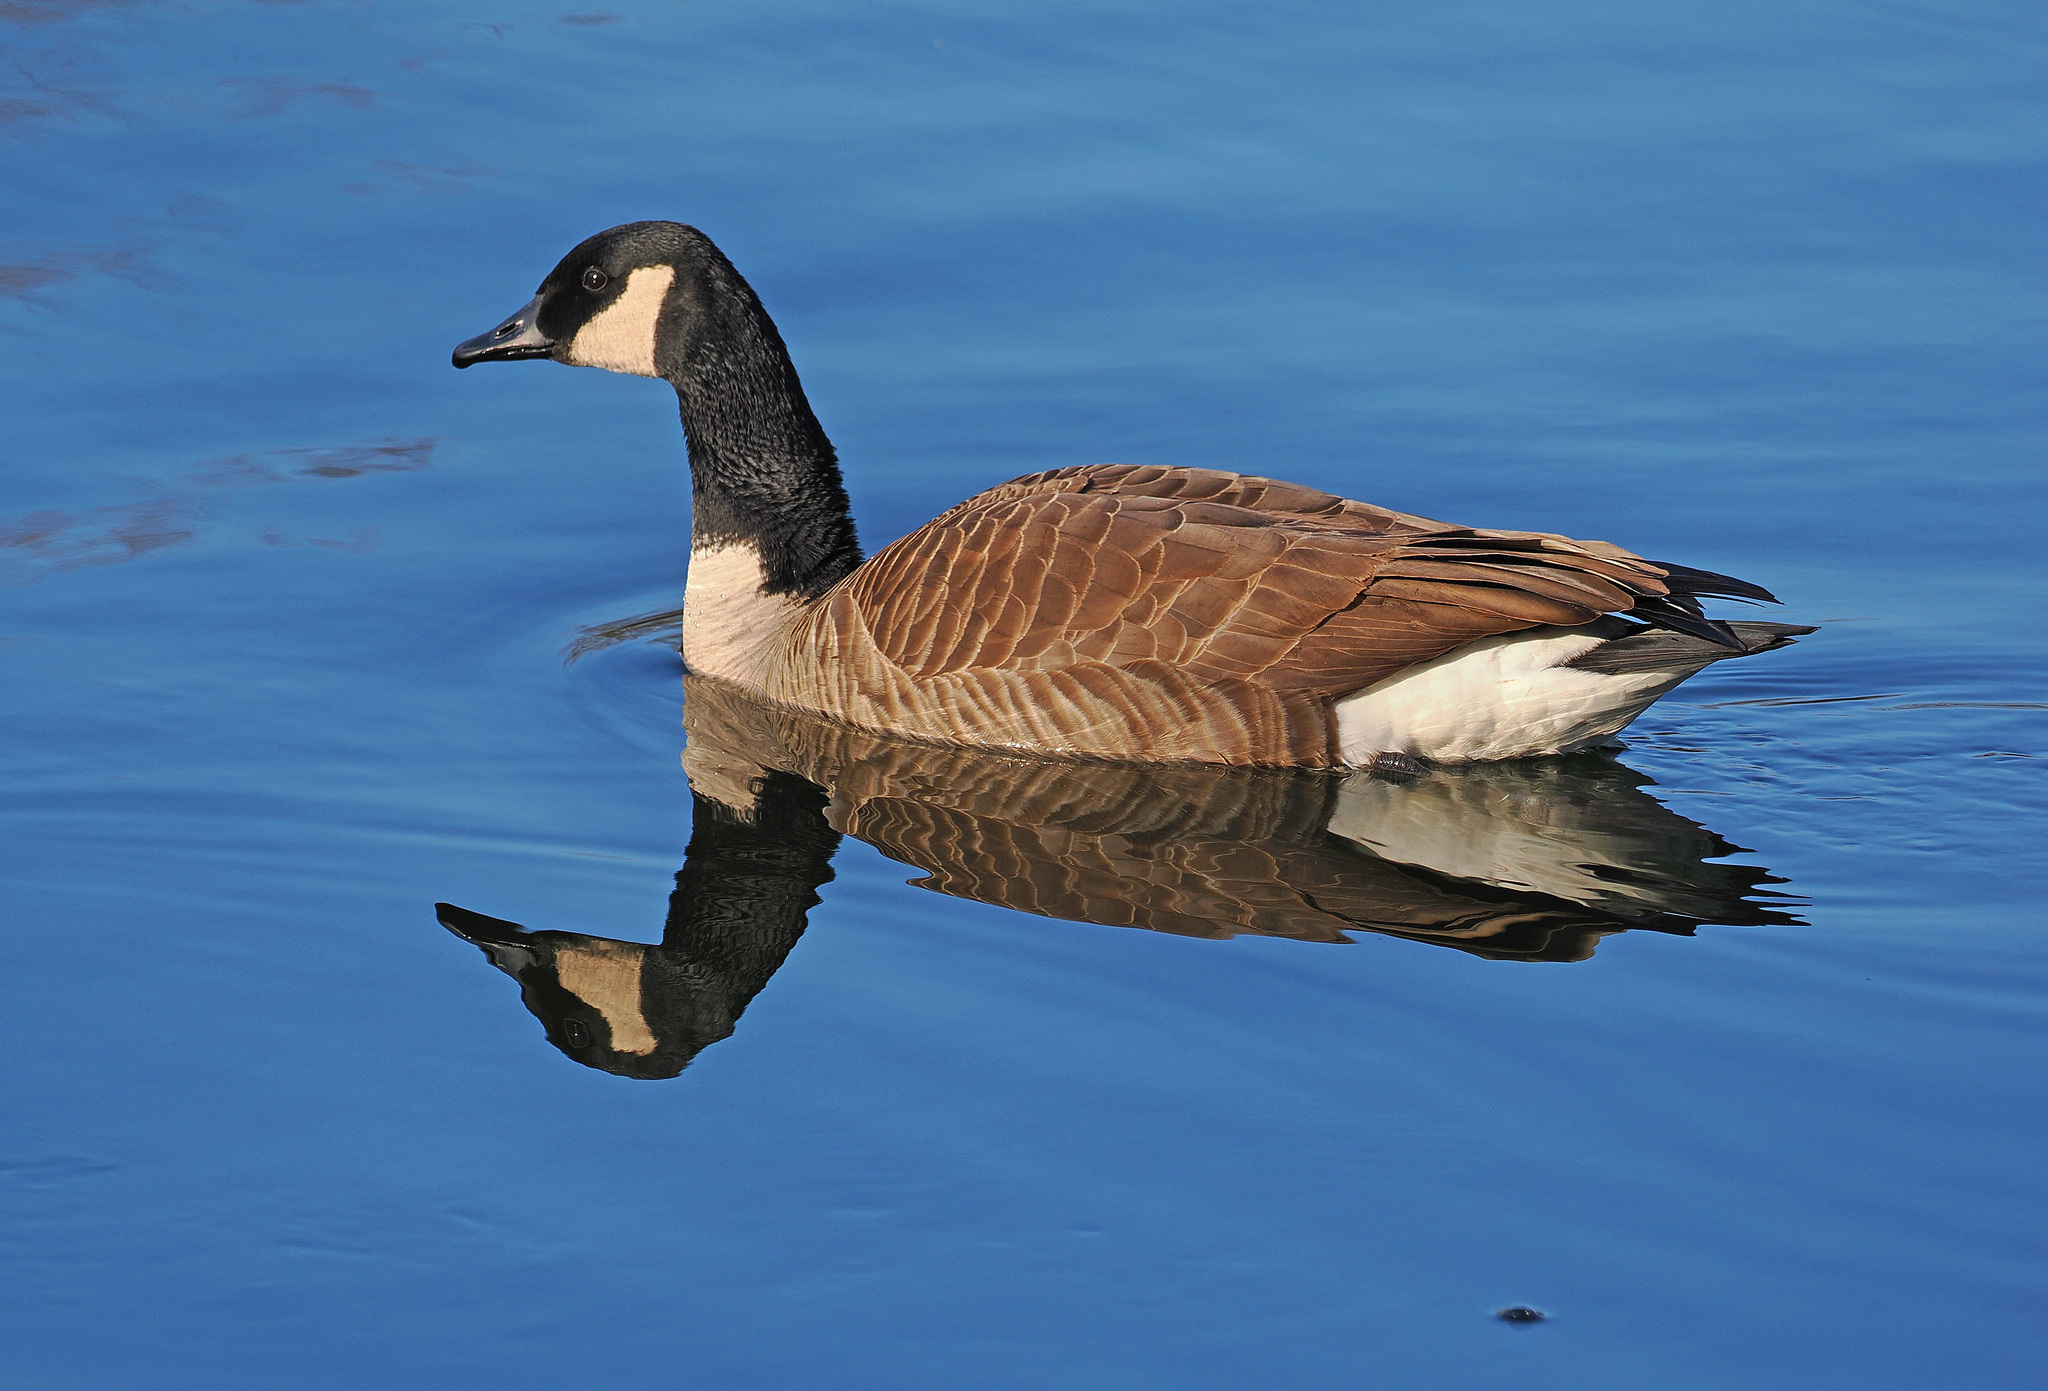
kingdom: Animalia
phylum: Chordata
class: Aves
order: Anseriformes
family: Anatidae
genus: Branta
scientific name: Branta canadensis
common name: Canada goose
